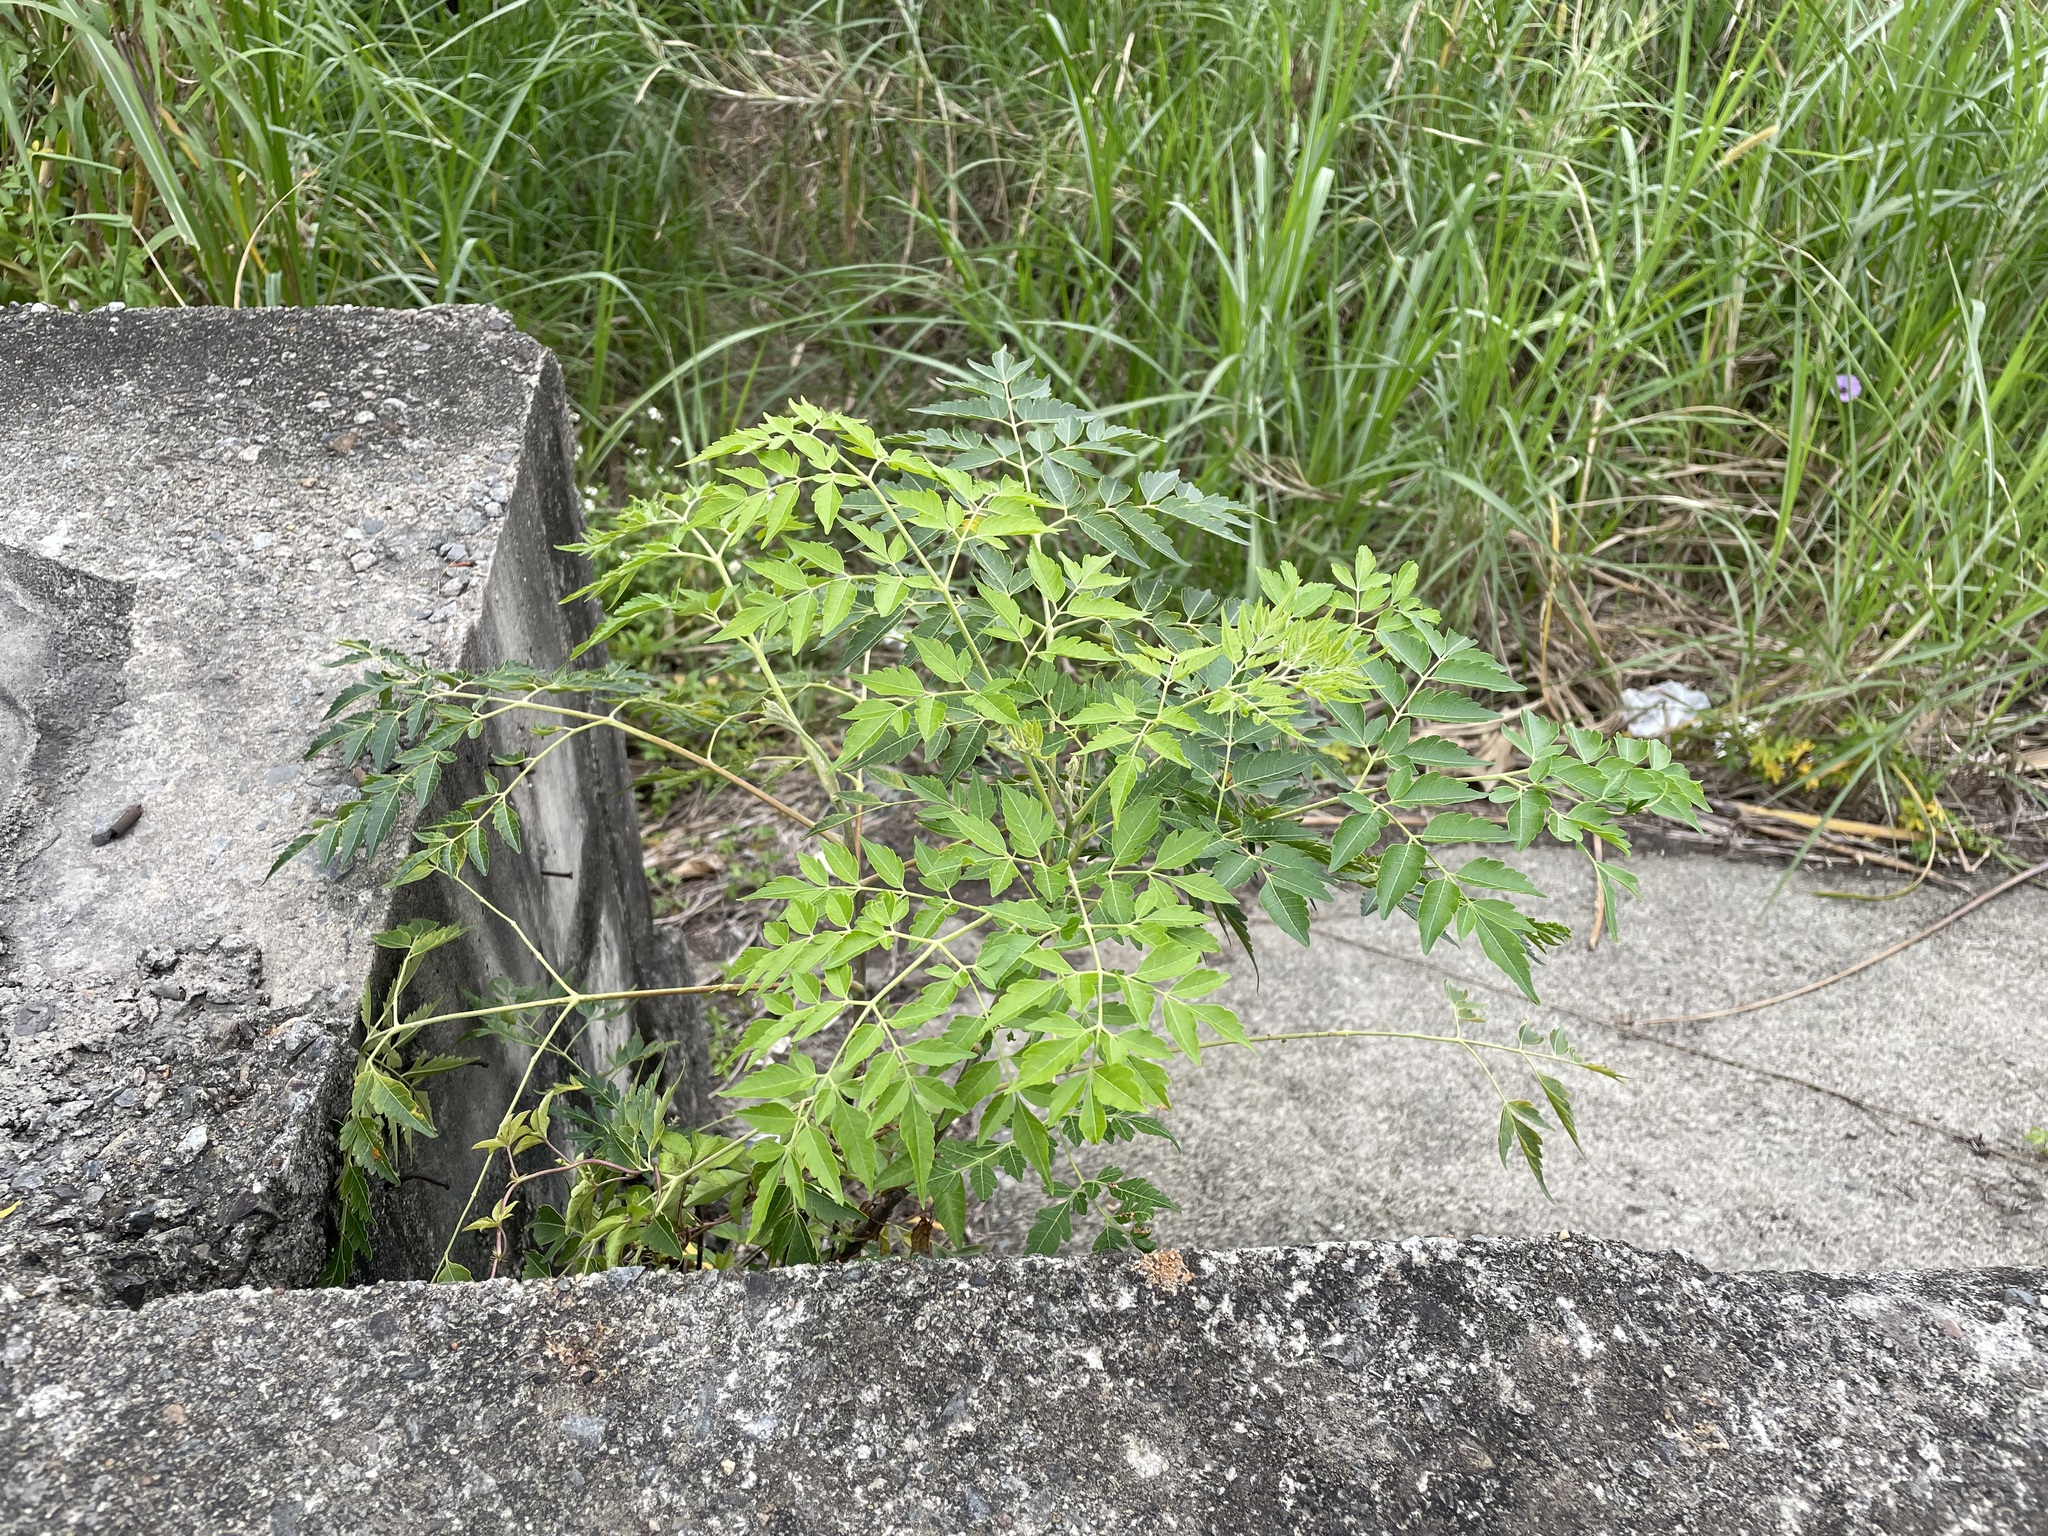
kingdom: Plantae
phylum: Tracheophyta
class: Magnoliopsida
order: Sapindales
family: Sapindaceae
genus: Koelreuteria
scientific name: Koelreuteria elegans
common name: Chinese flame tree
